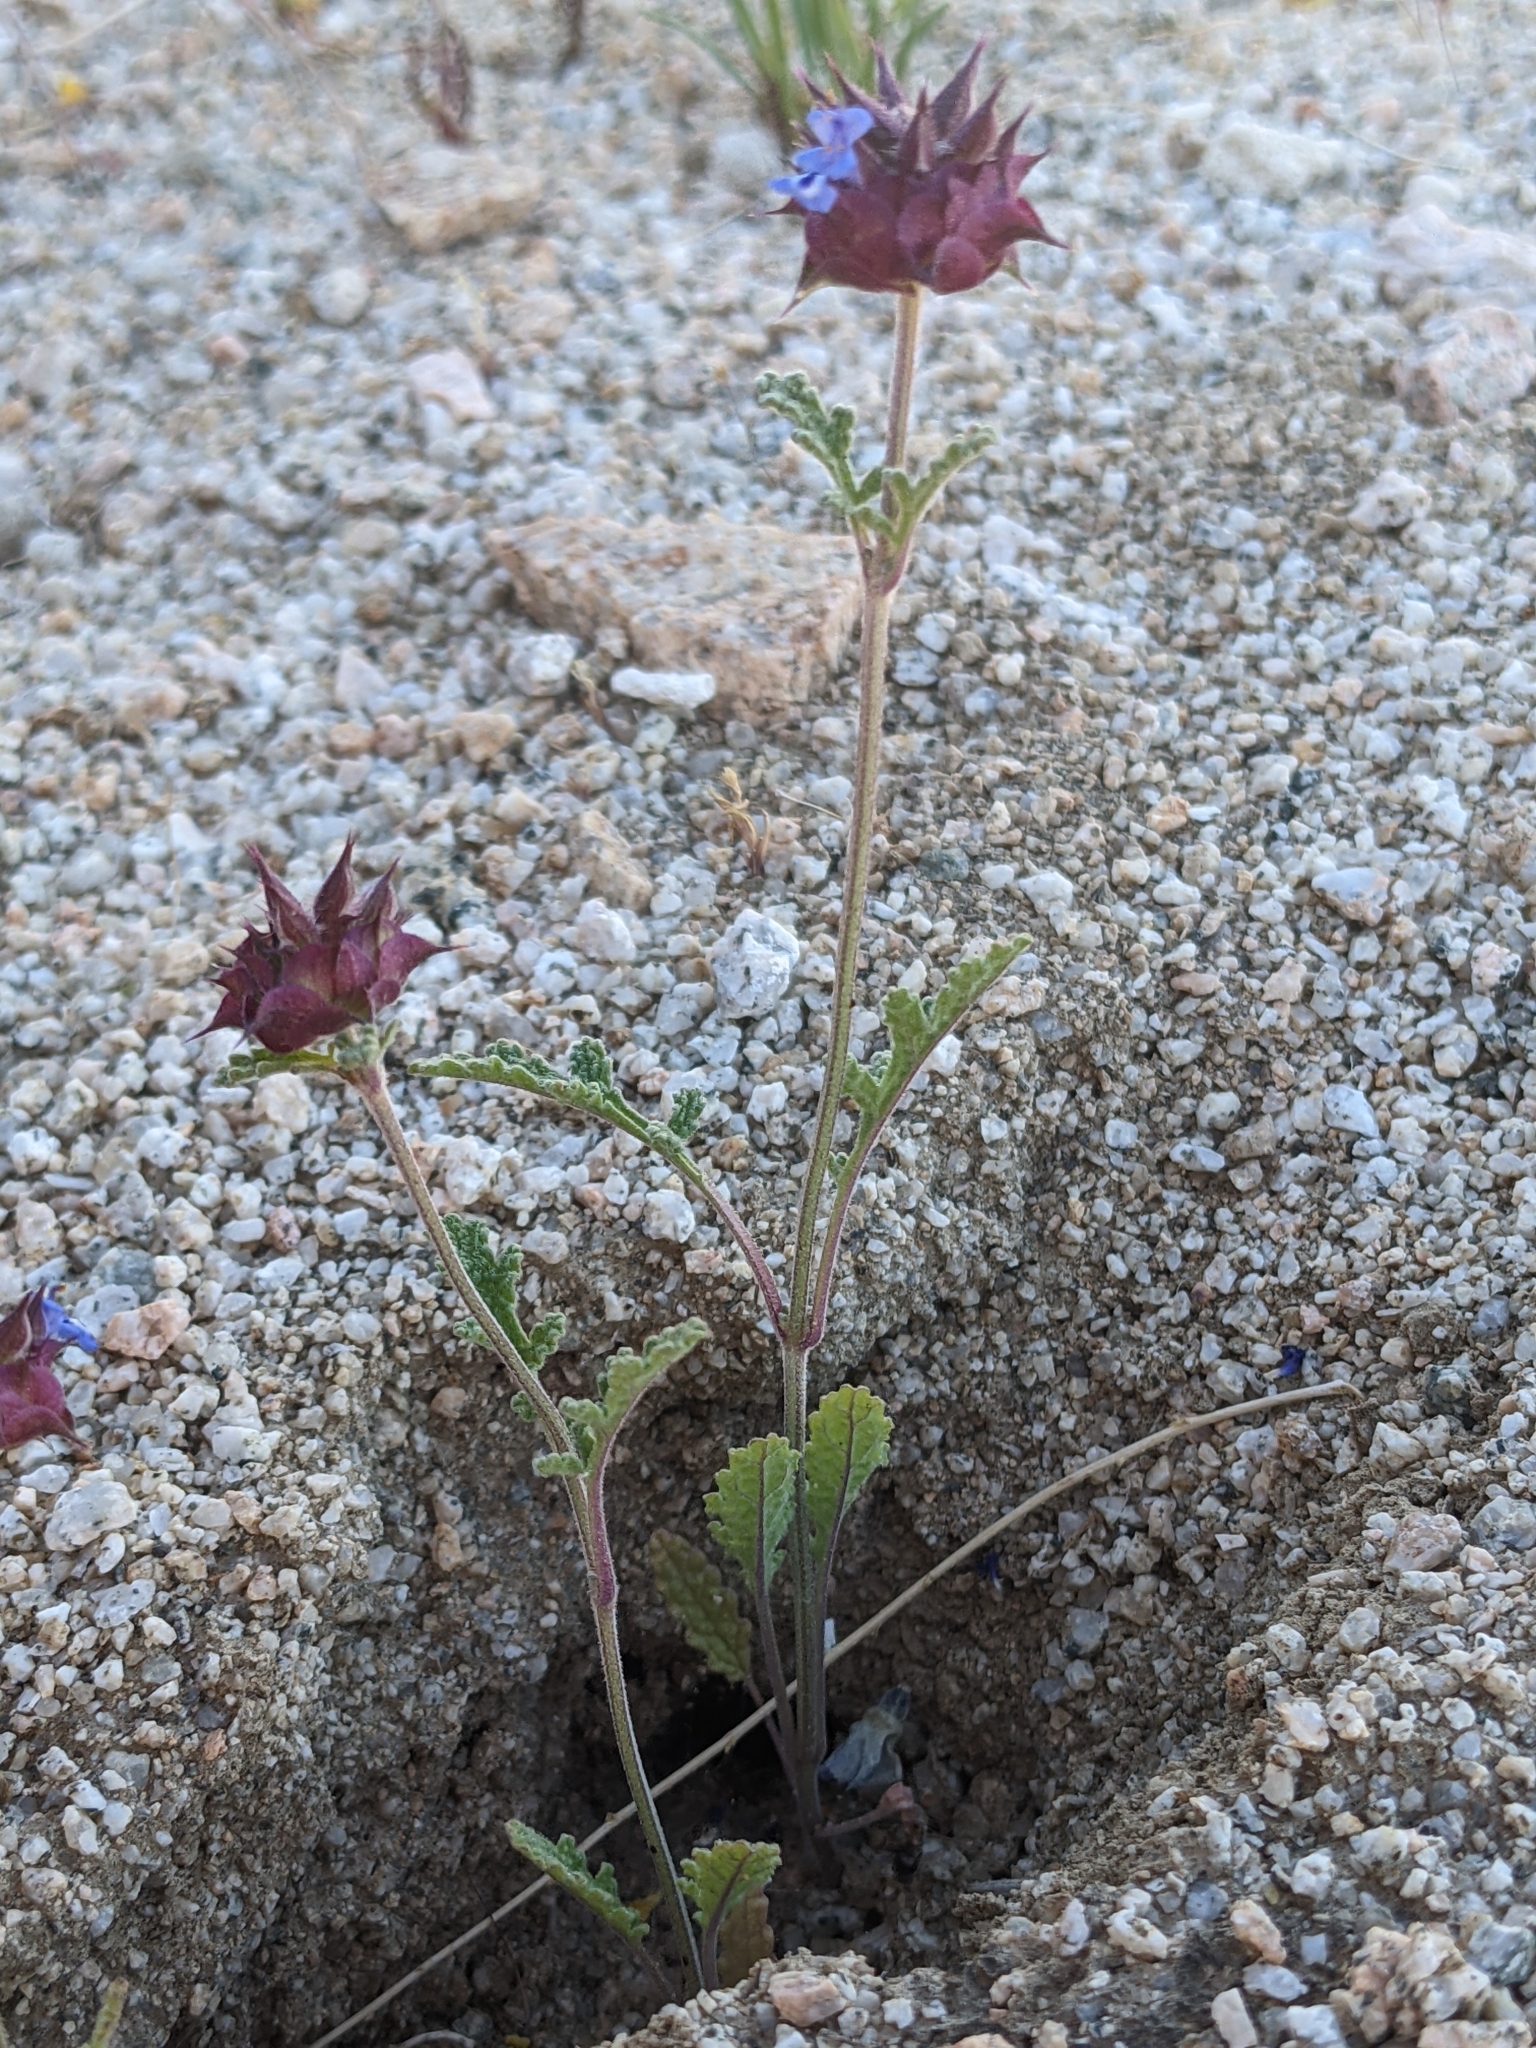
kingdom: Plantae
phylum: Tracheophyta
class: Magnoliopsida
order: Lamiales
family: Lamiaceae
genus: Salvia
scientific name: Salvia columbariae
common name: Chia
